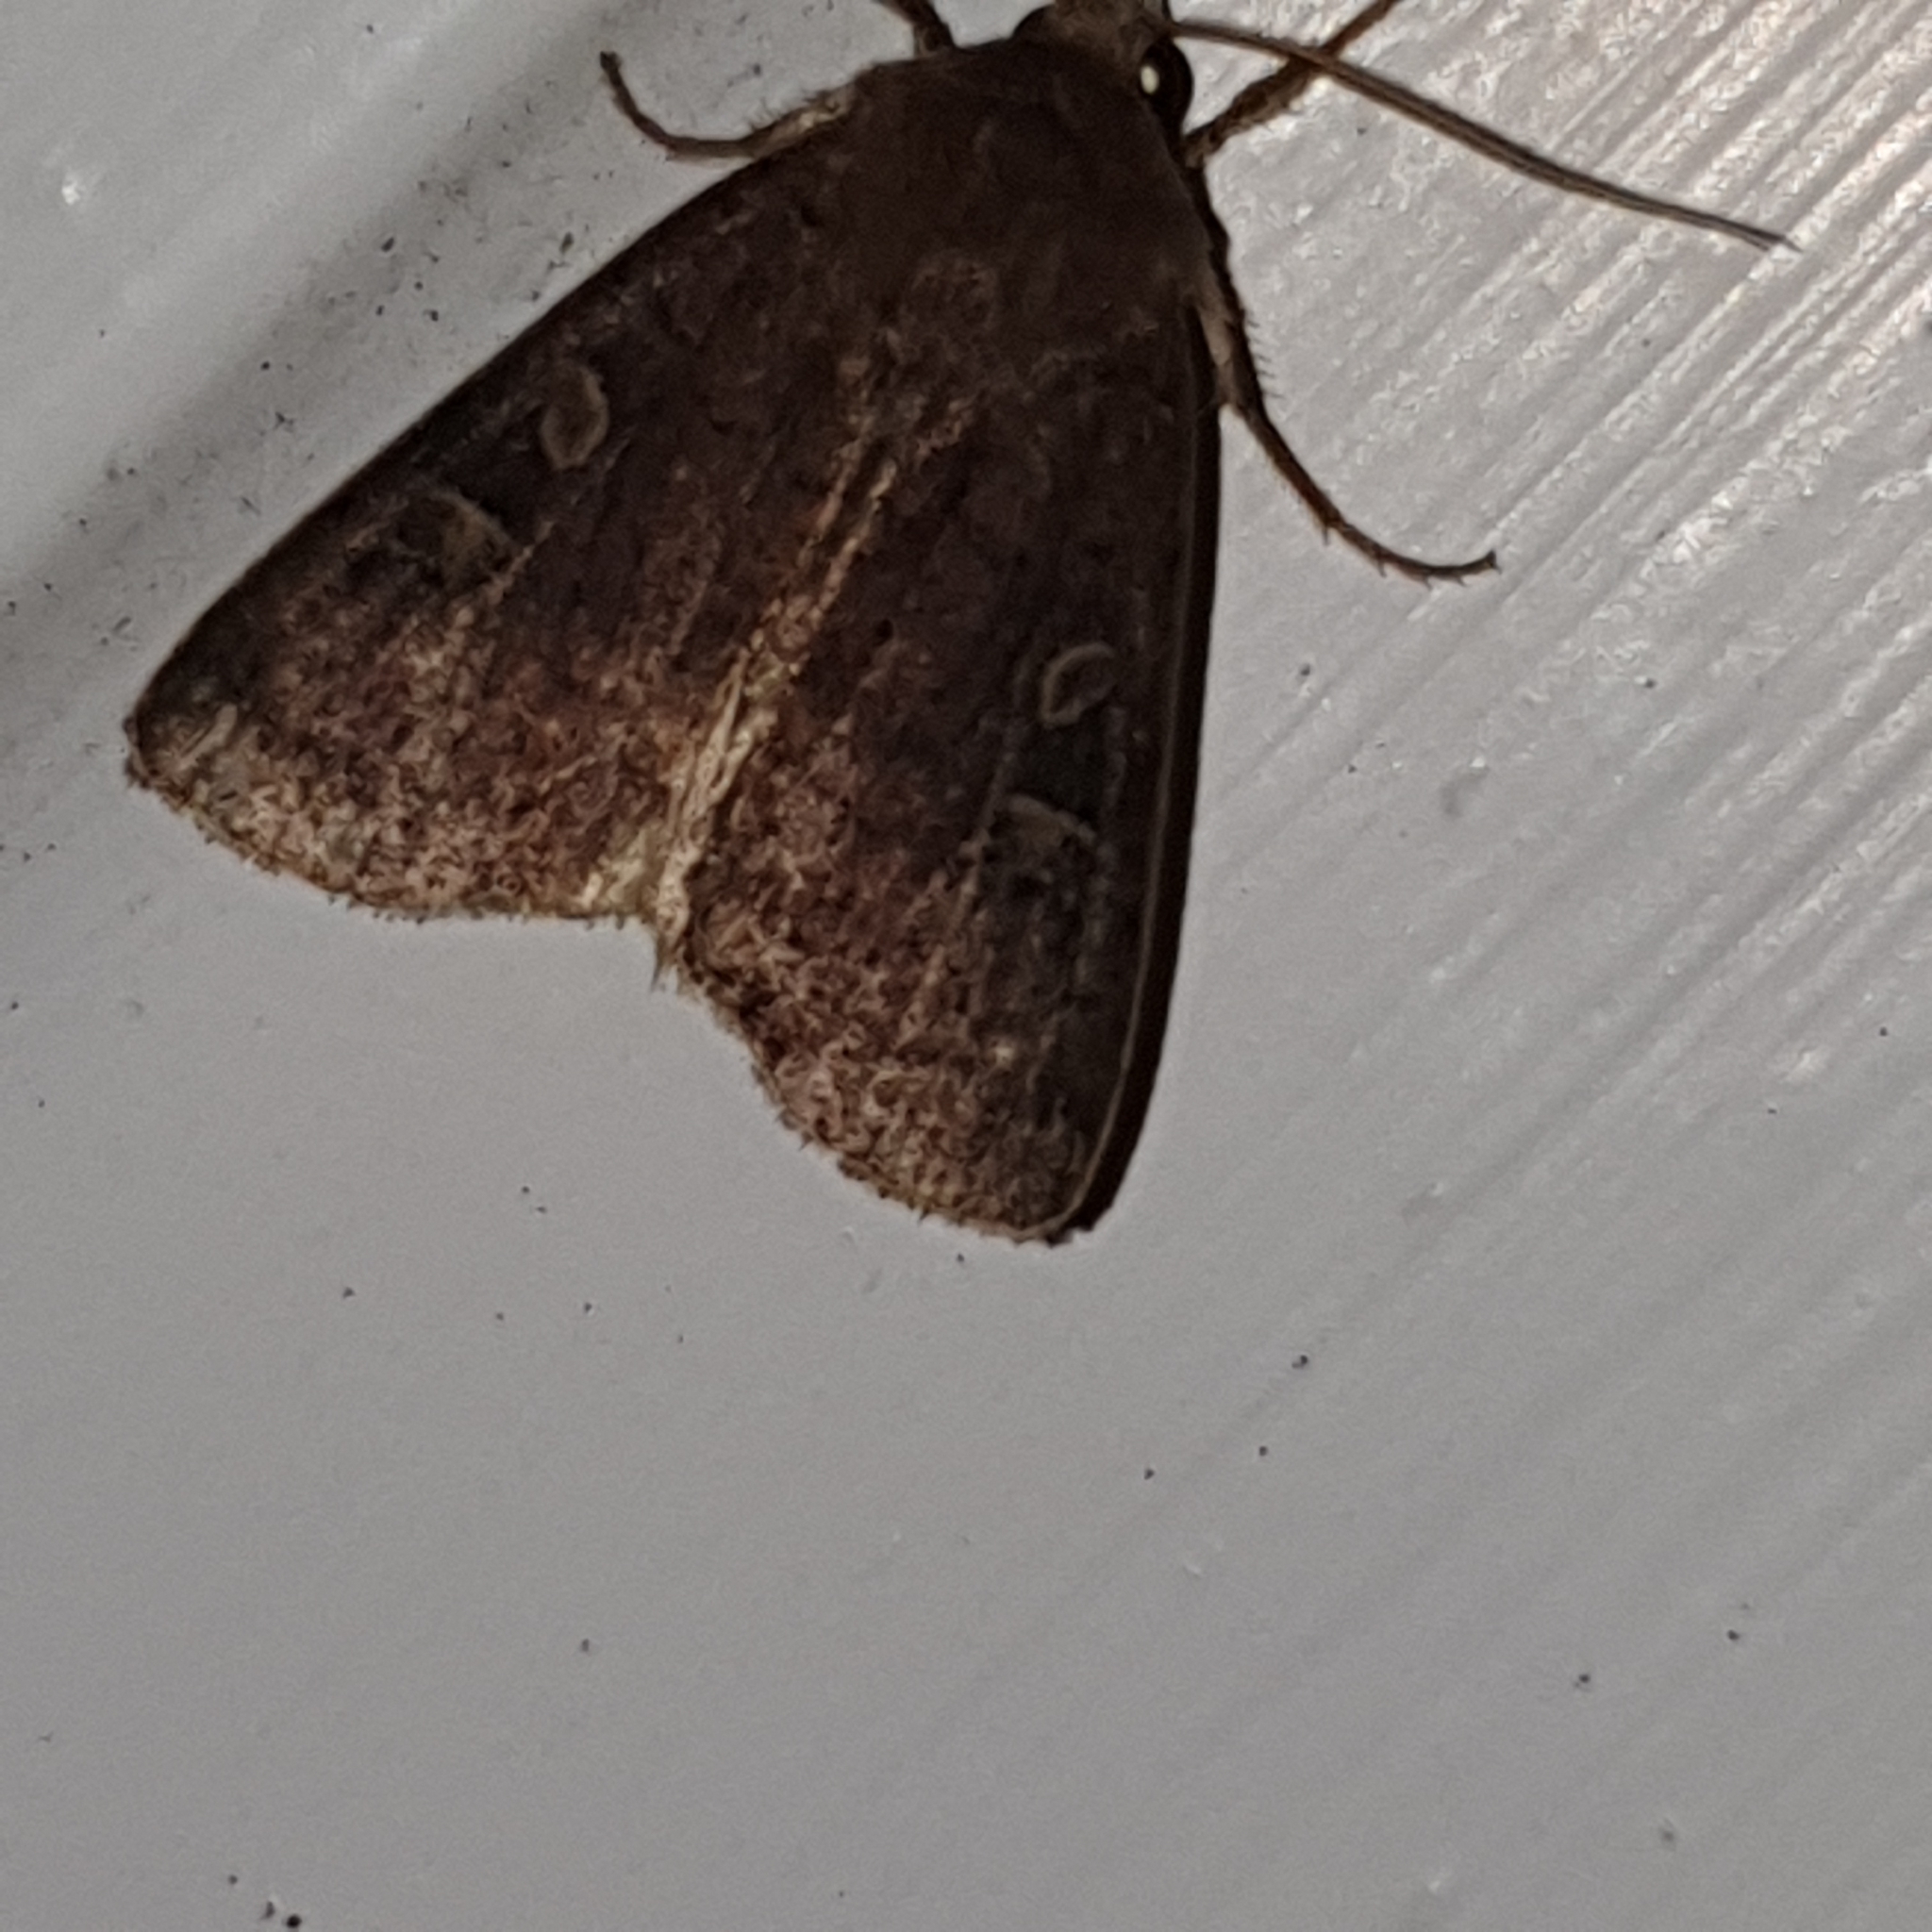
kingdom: Animalia
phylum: Arthropoda
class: Insecta
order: Lepidoptera
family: Noctuidae
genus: Xestia
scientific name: Xestia xanthographa
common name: Square-spot rustic
